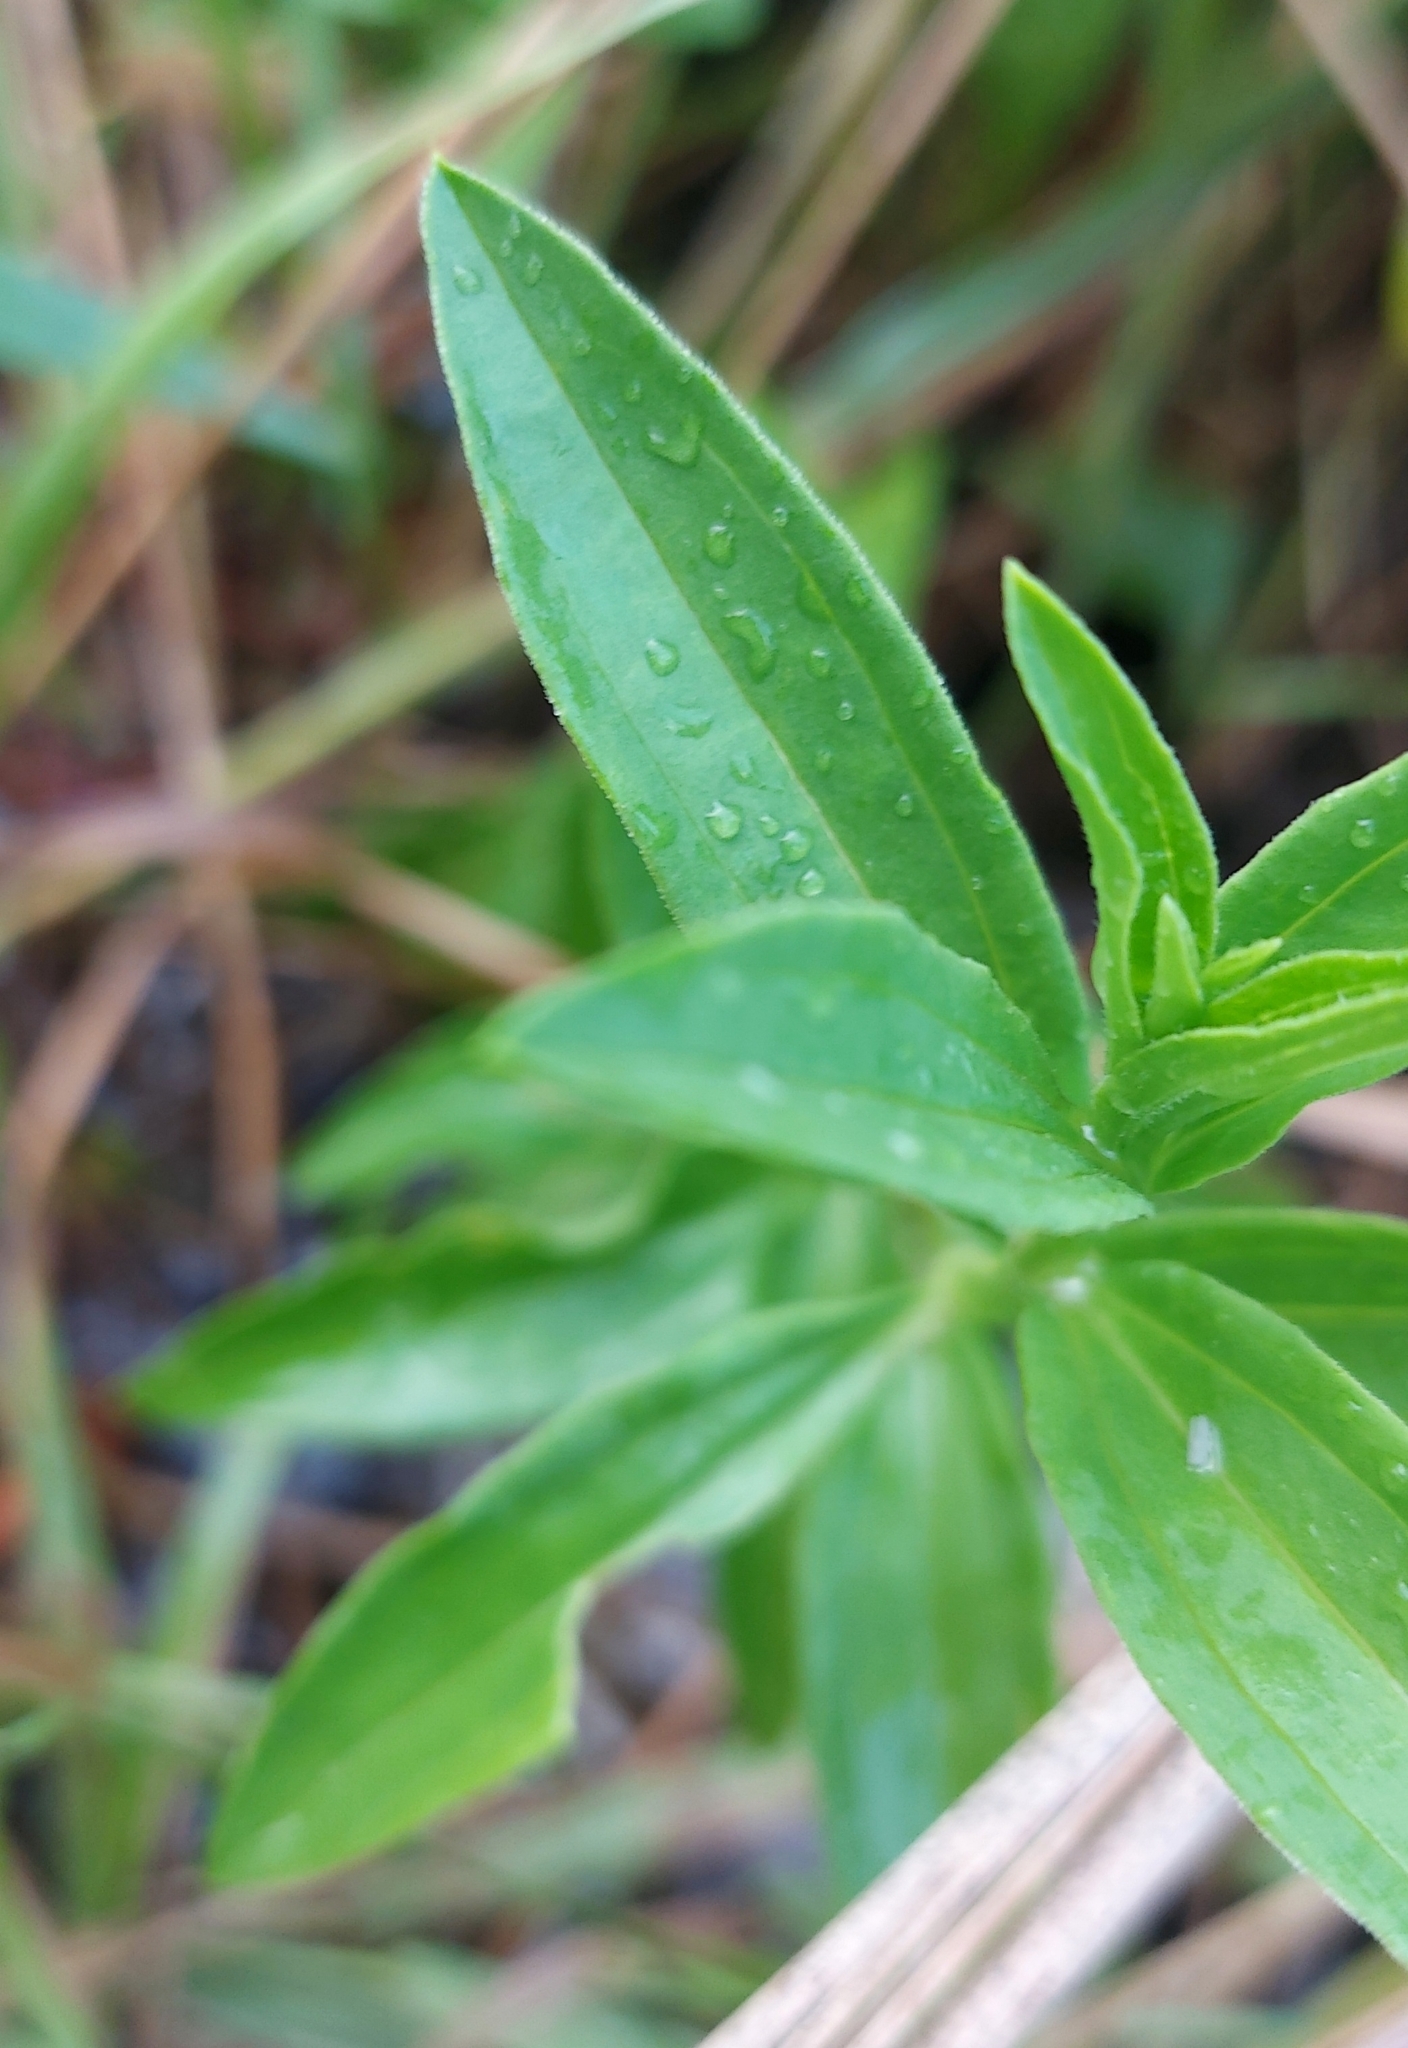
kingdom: Plantae
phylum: Tracheophyta
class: Magnoliopsida
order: Caryophyllales
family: Caryophyllaceae
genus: Saponaria
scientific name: Saponaria officinalis
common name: Soapwort
